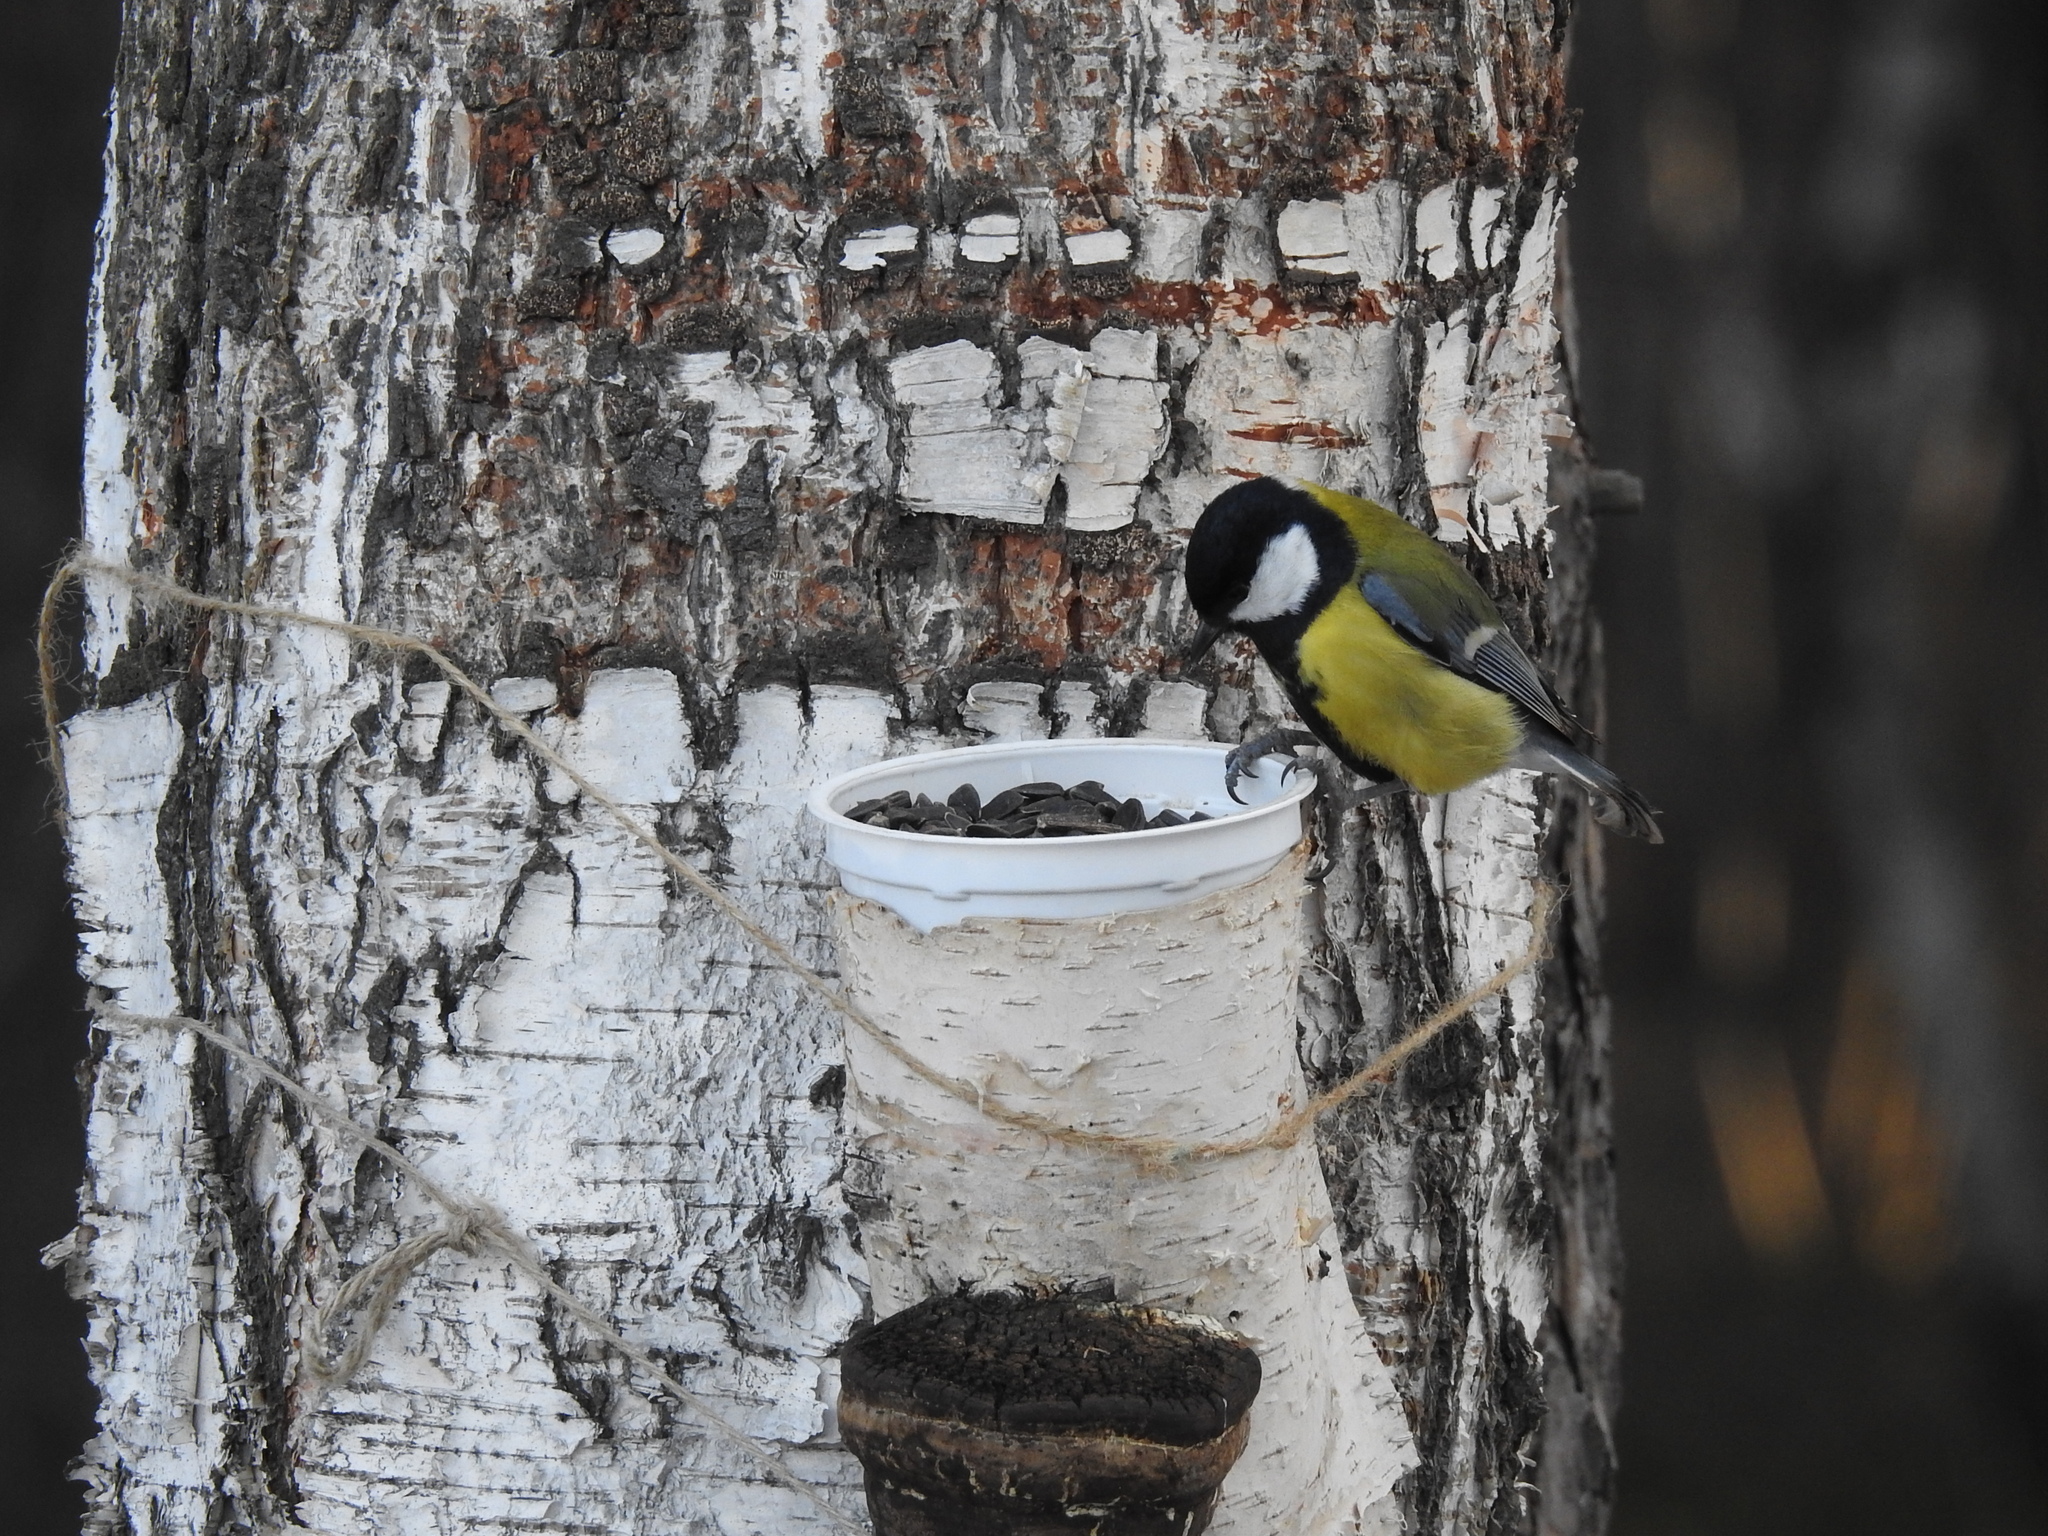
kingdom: Animalia
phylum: Chordata
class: Aves
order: Passeriformes
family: Paridae
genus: Parus
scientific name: Parus major
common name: Great tit
